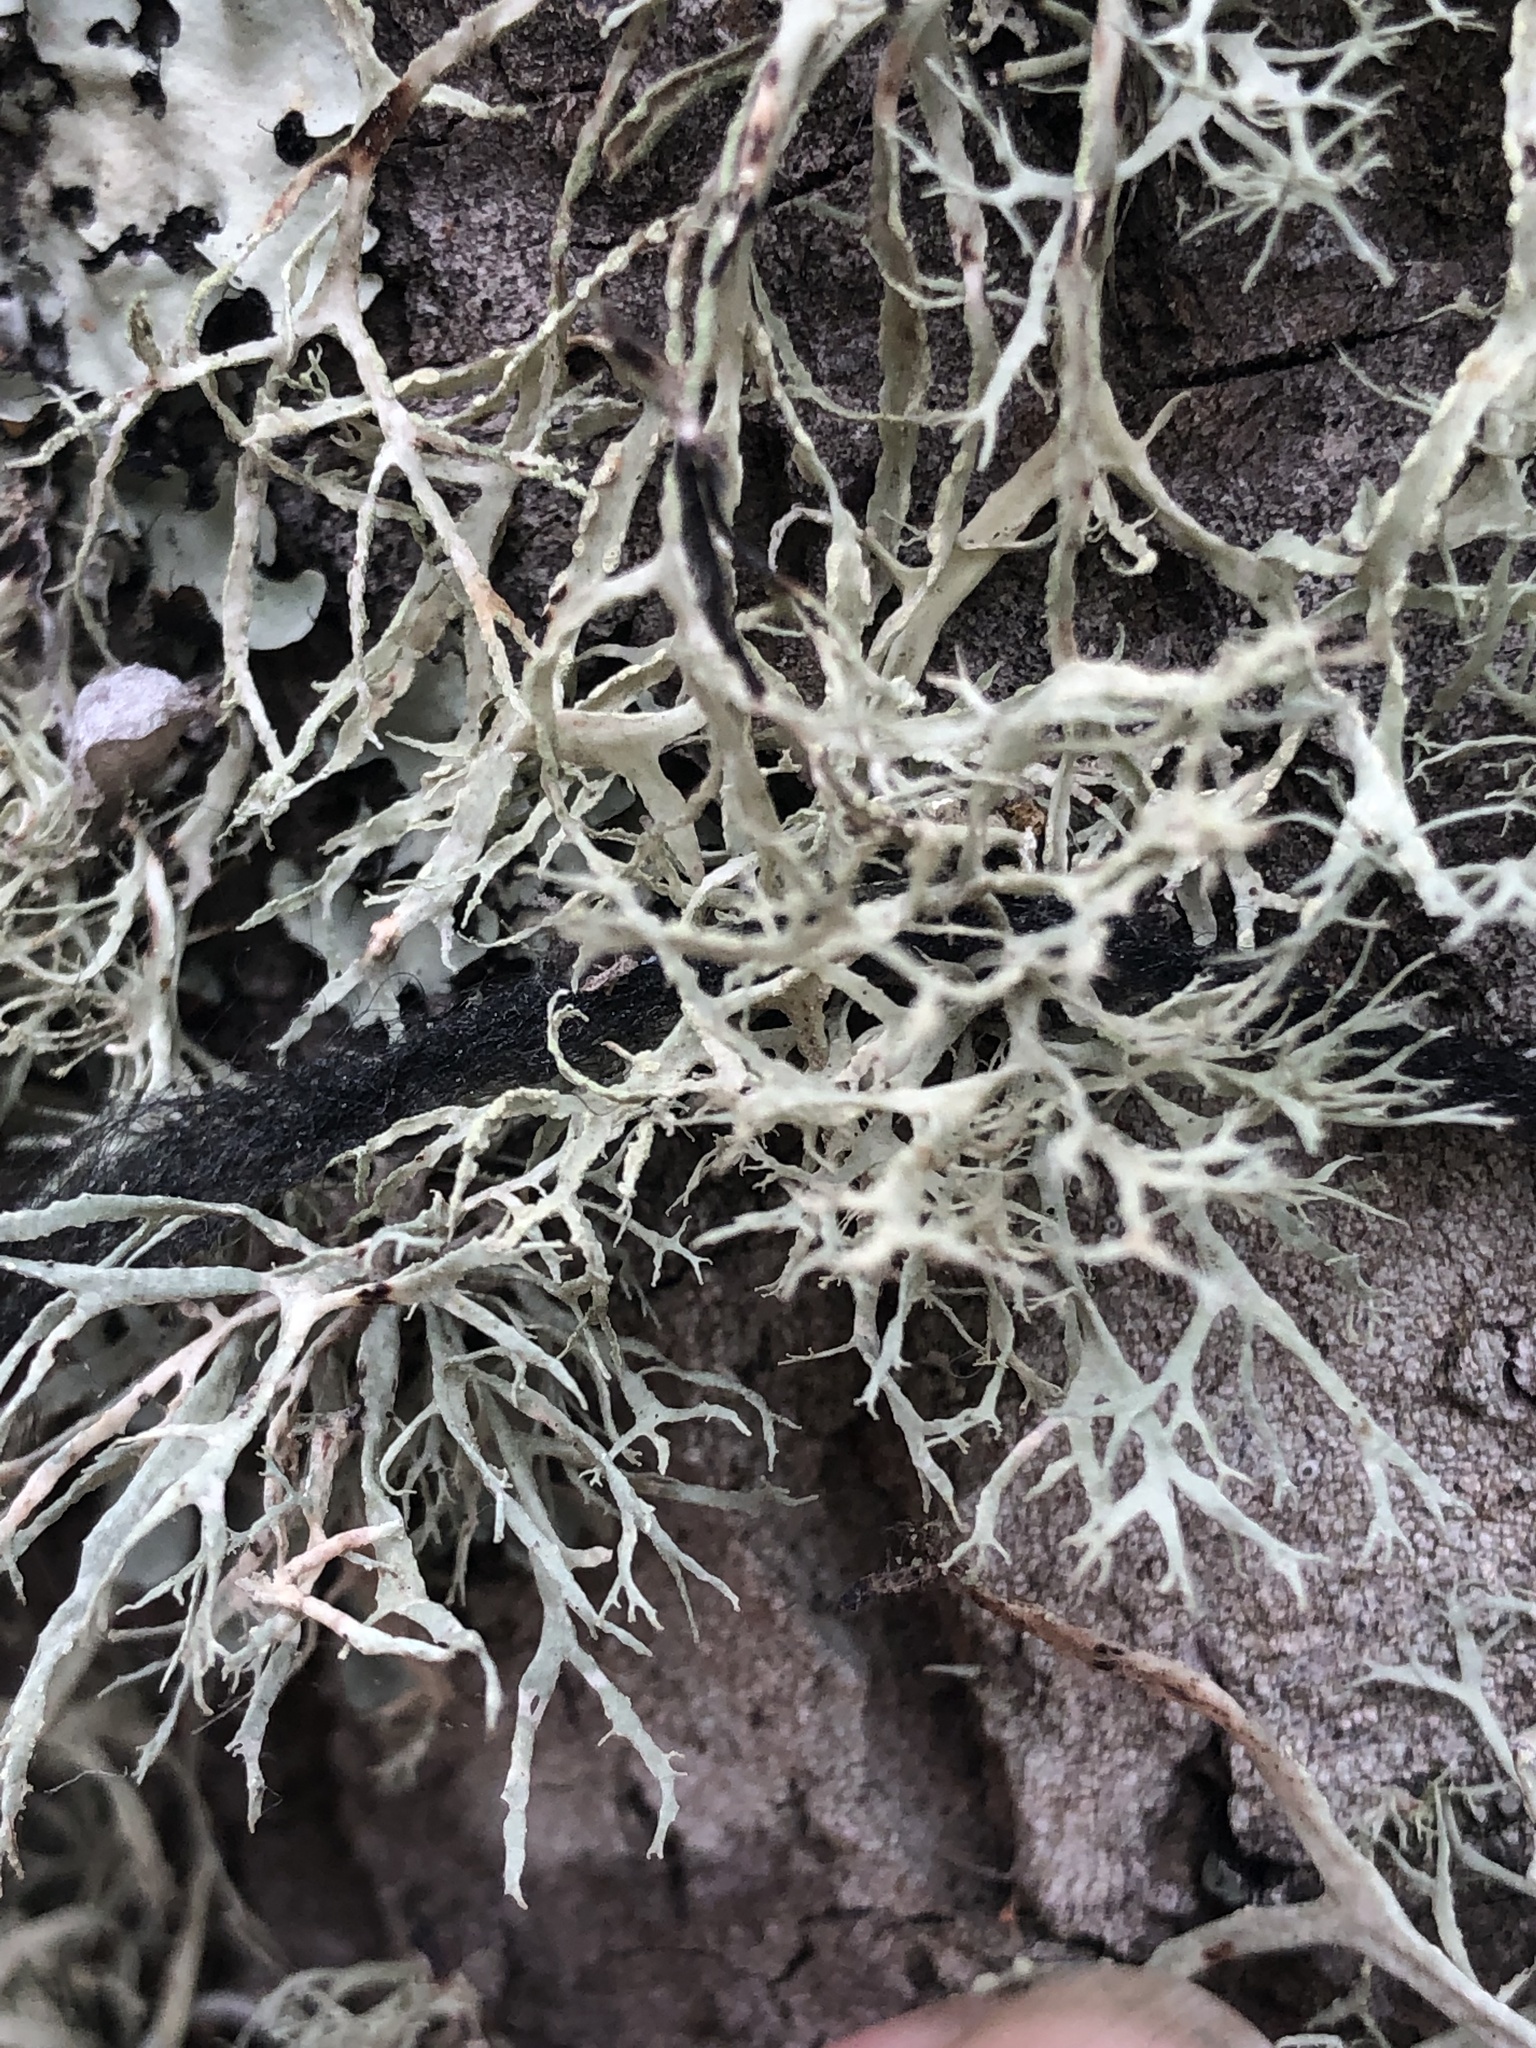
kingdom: Fungi
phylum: Ascomycota
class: Lecanoromycetes
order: Lecanorales
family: Ramalinaceae
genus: Ramalina
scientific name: Ramalina farinacea
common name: Farinose cartilage lichen
